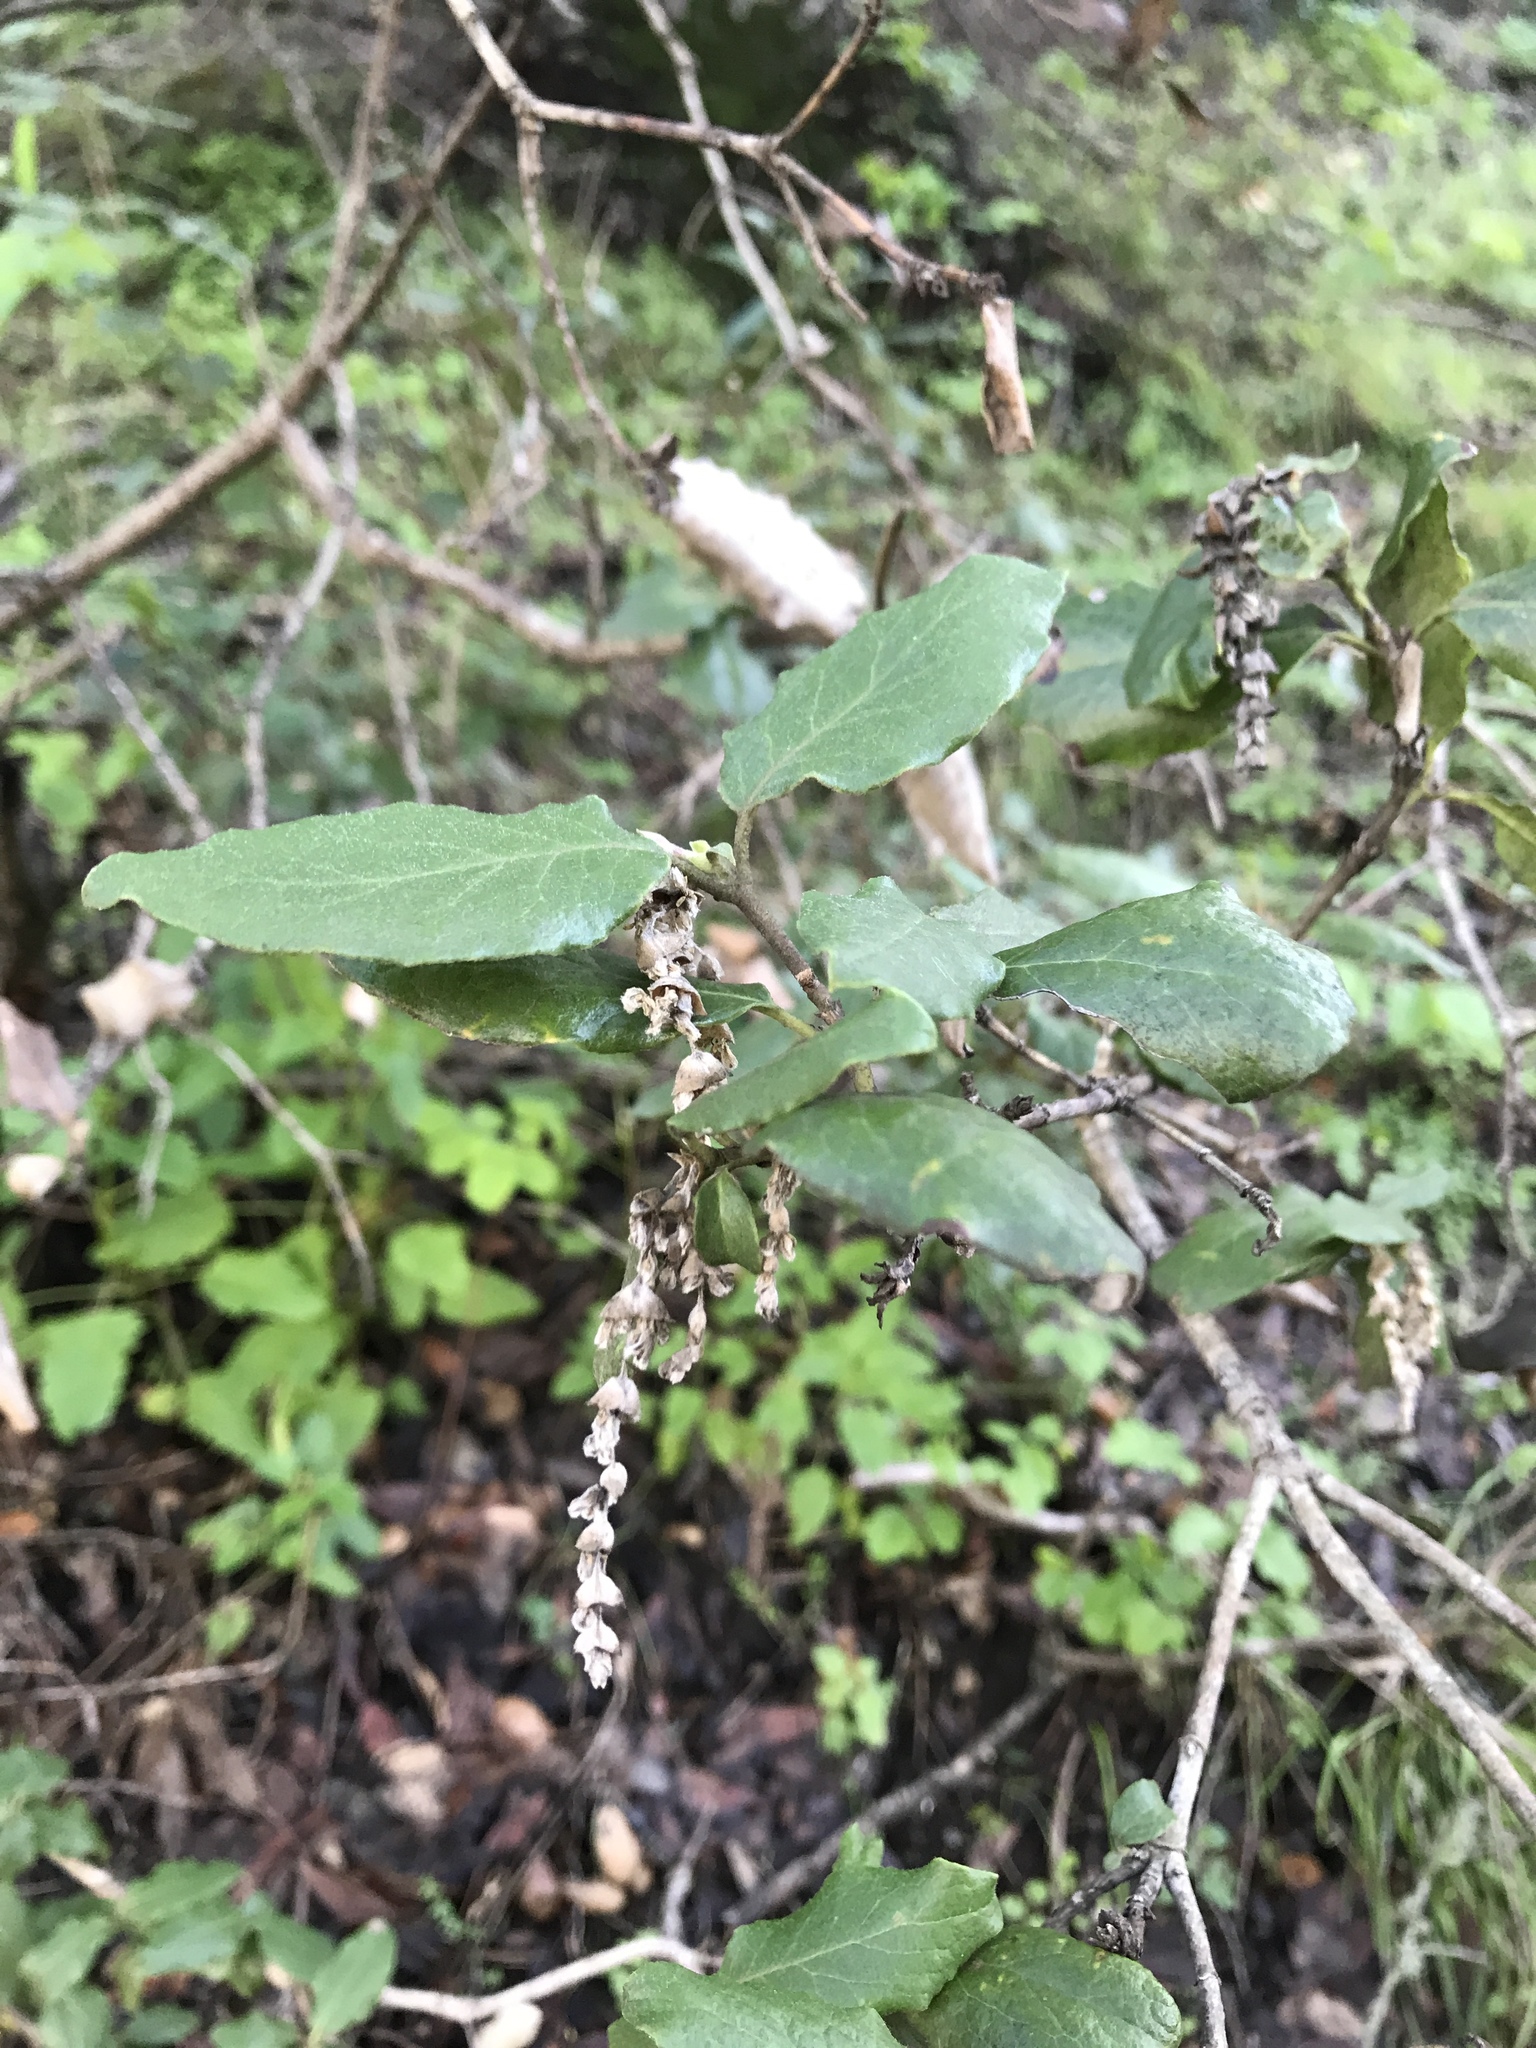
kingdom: Plantae
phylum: Tracheophyta
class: Magnoliopsida
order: Garryales
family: Garryaceae
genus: Garrya
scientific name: Garrya elliptica
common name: Silk-tassel
